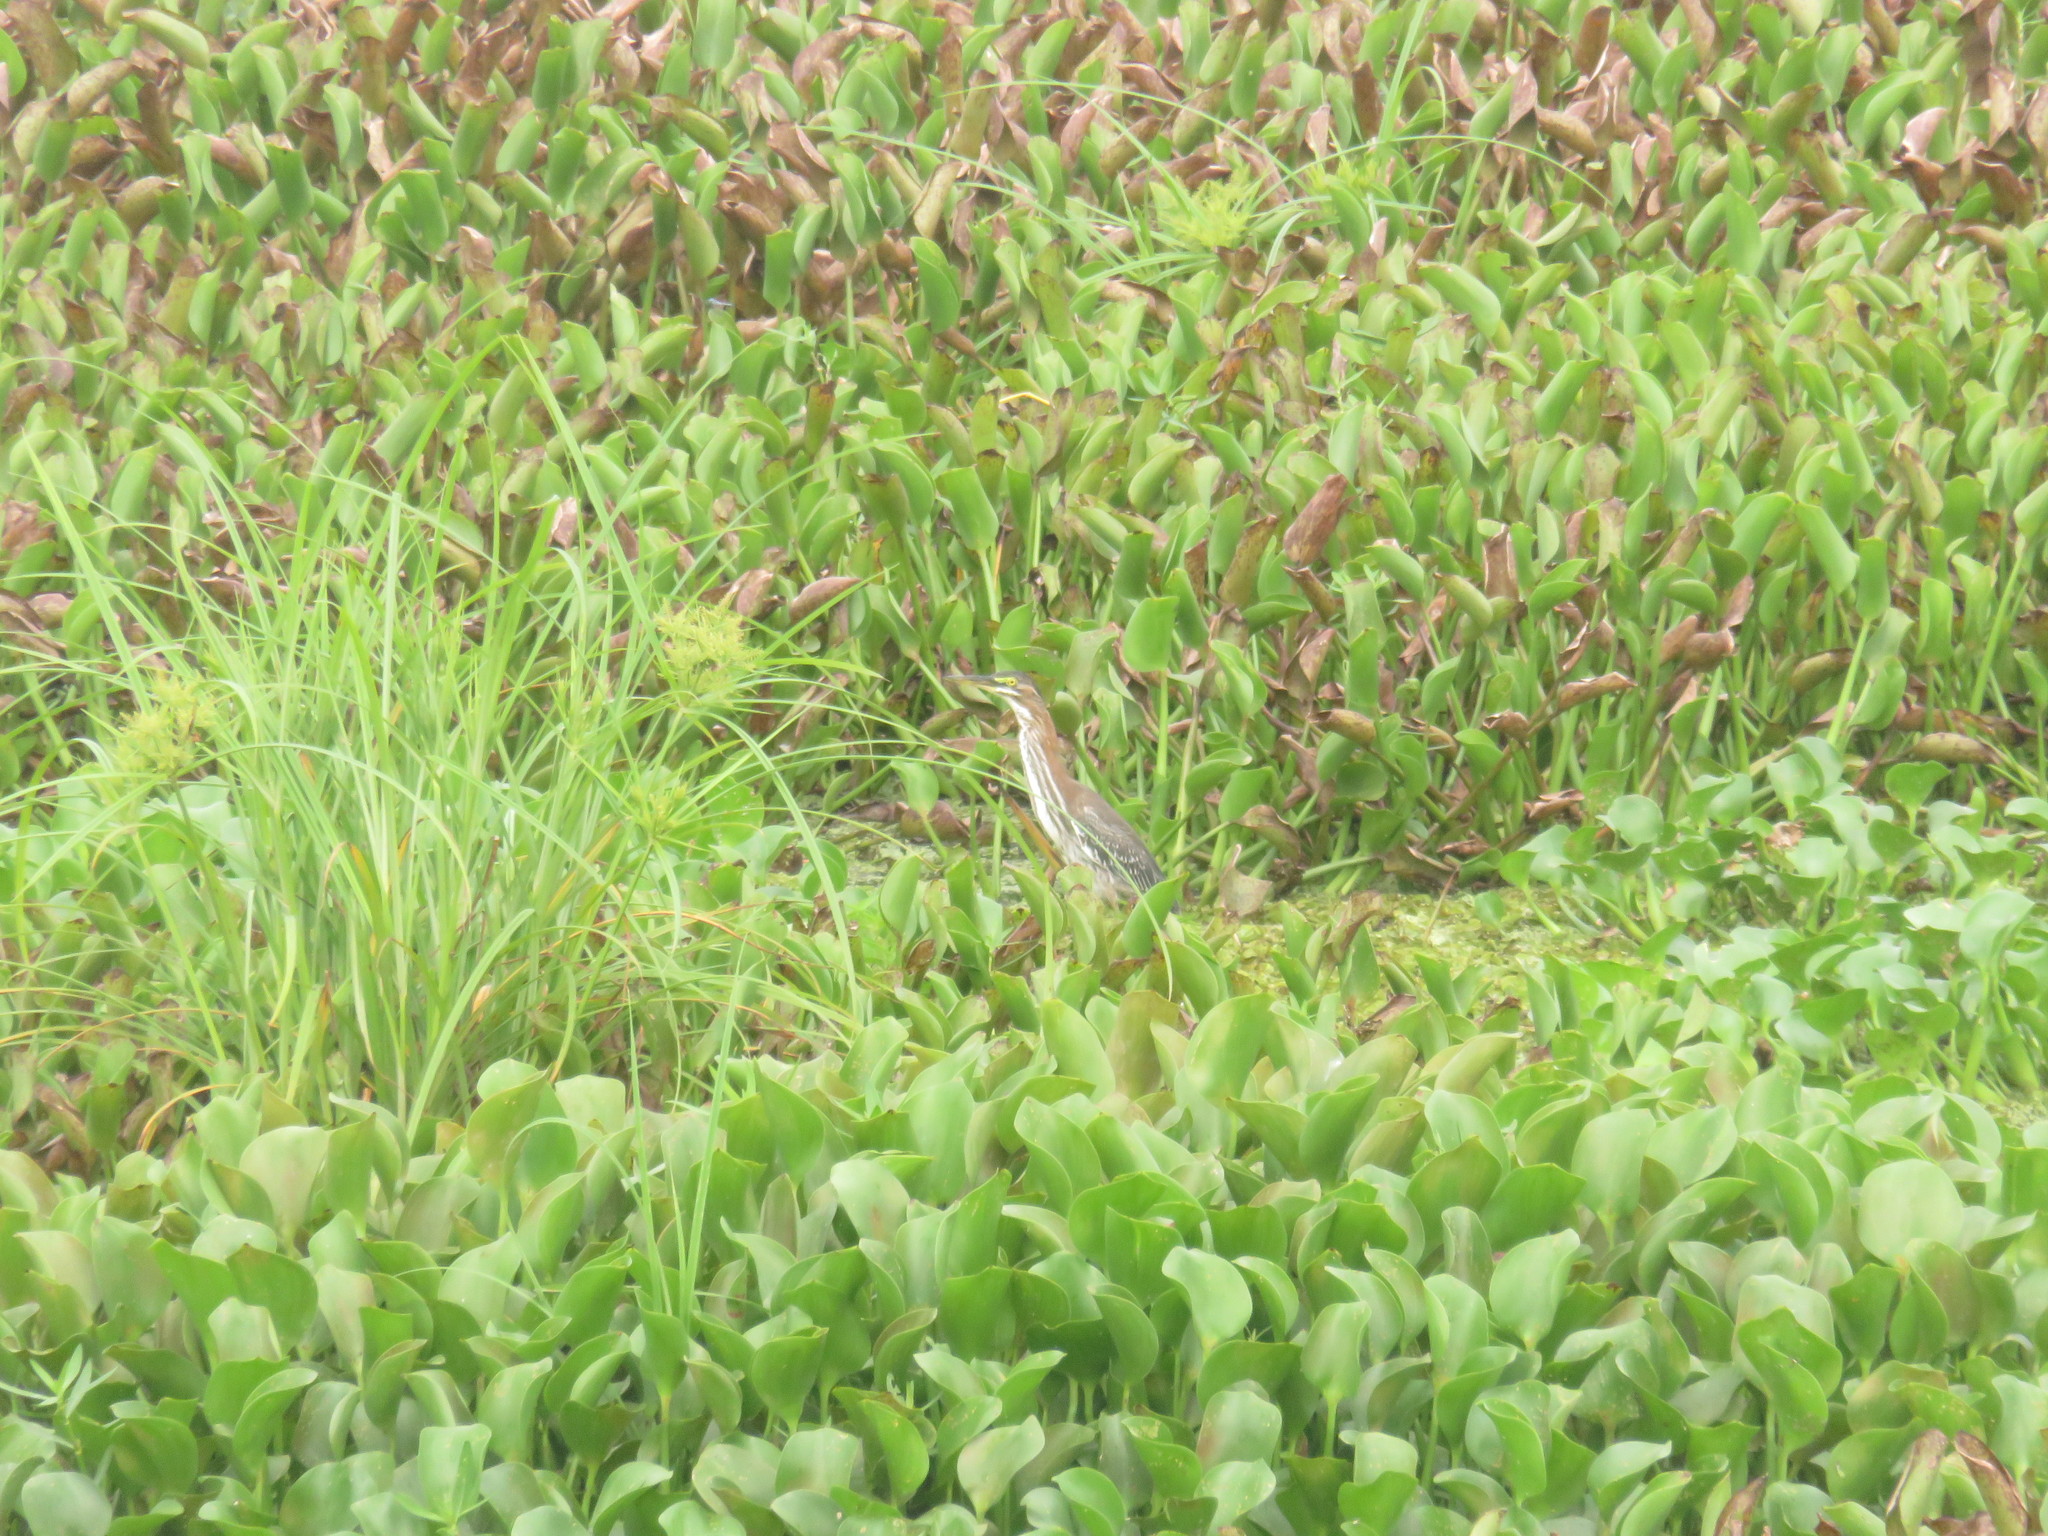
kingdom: Animalia
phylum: Chordata
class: Aves
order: Pelecaniformes
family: Ardeidae
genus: Butorides
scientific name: Butorides virescens
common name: Green heron
